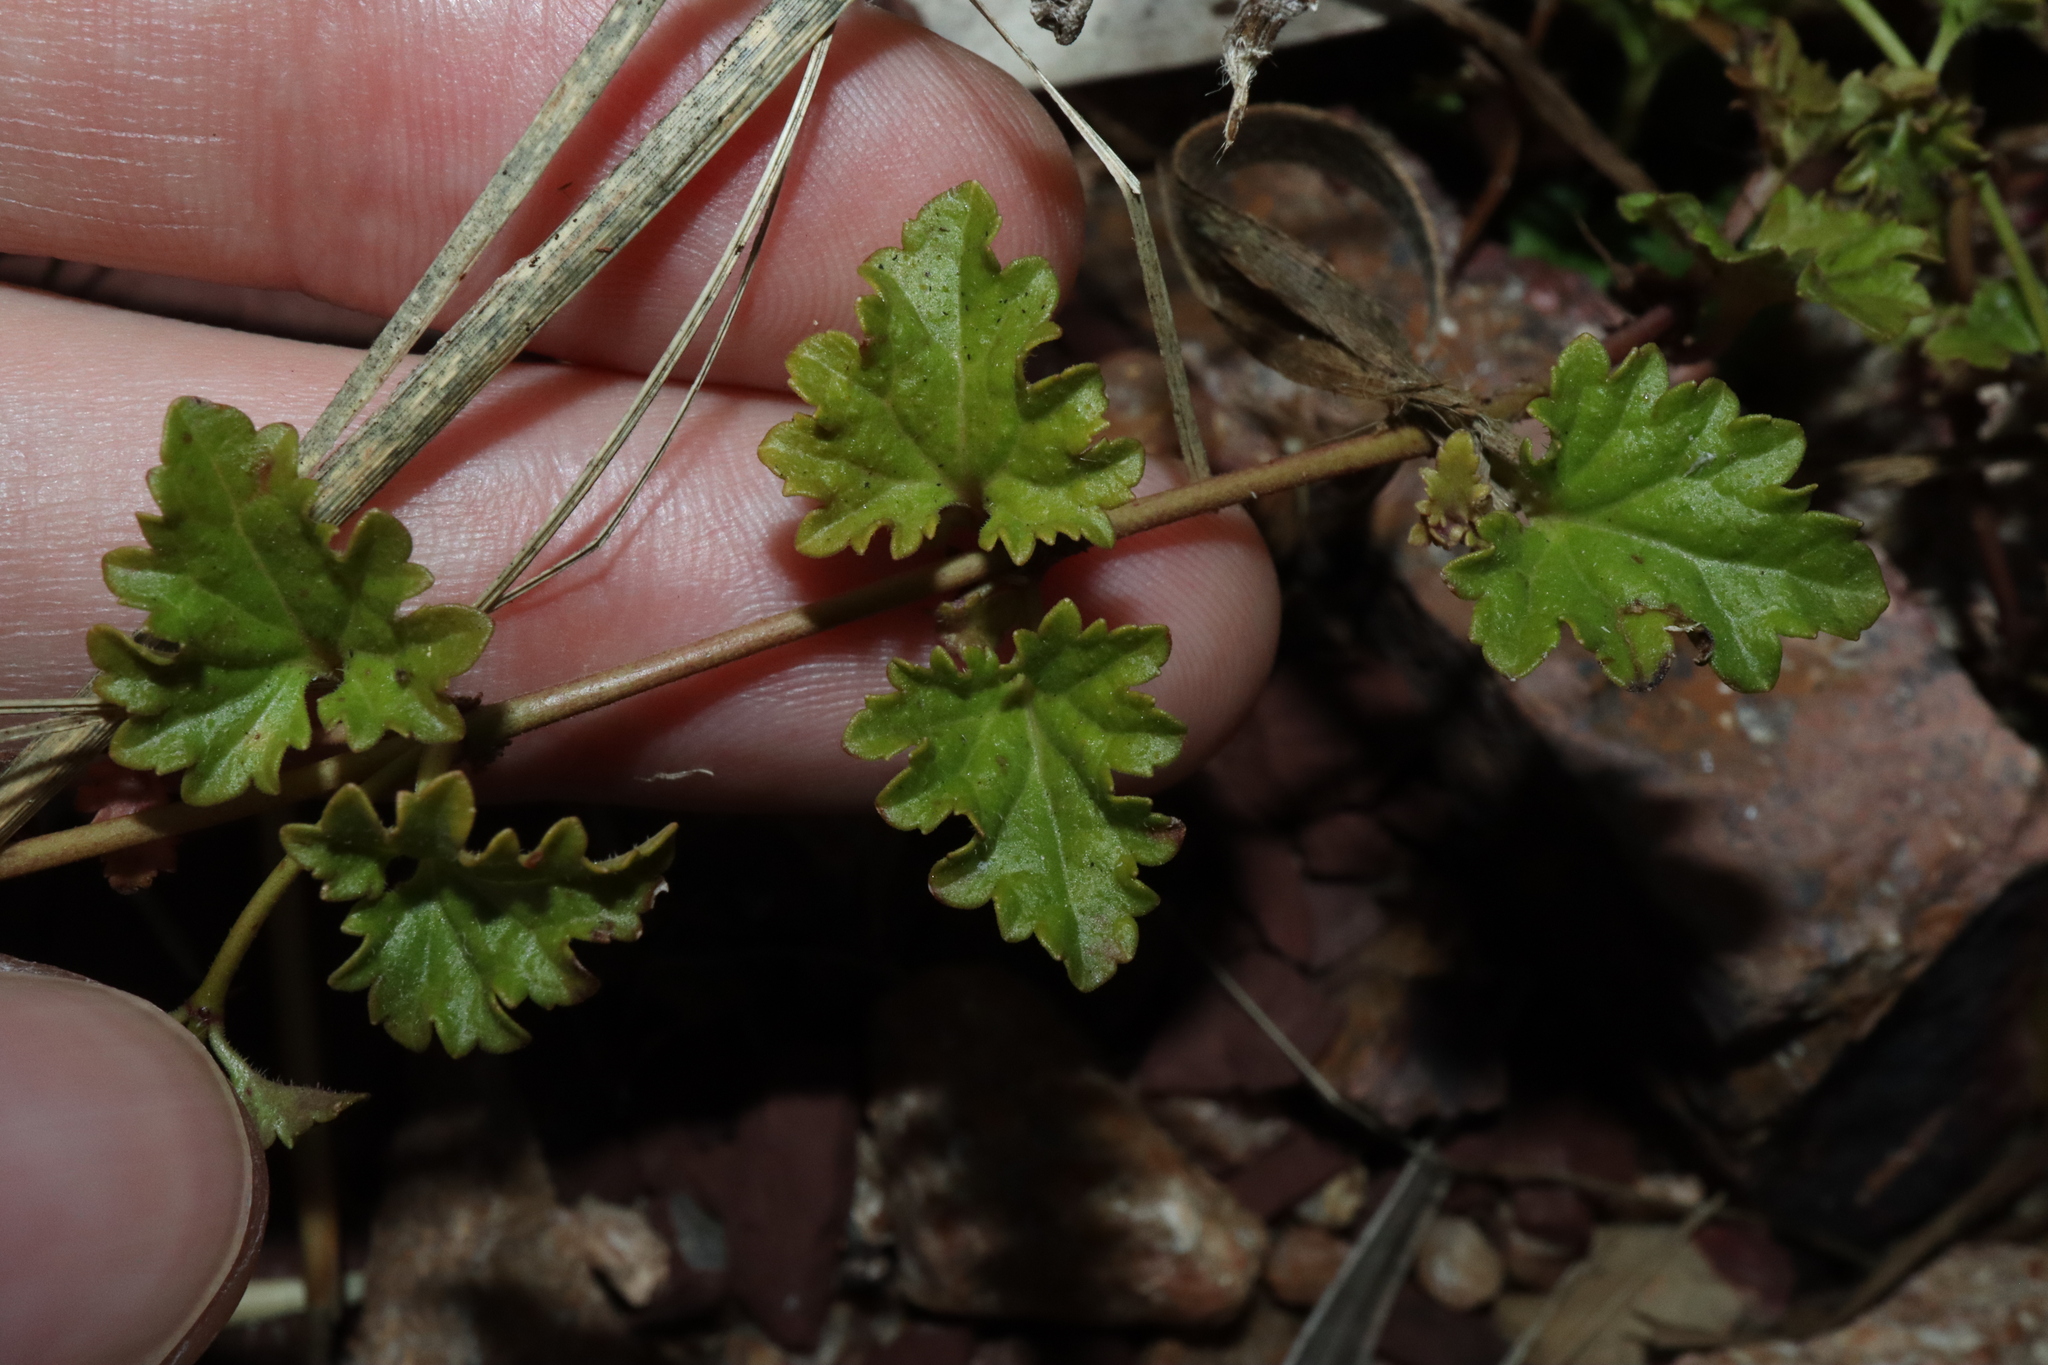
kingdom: Plantae
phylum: Tracheophyta
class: Magnoliopsida
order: Lamiales
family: Plantaginaceae
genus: Veronica
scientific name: Veronica plebeia
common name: Speedwell
